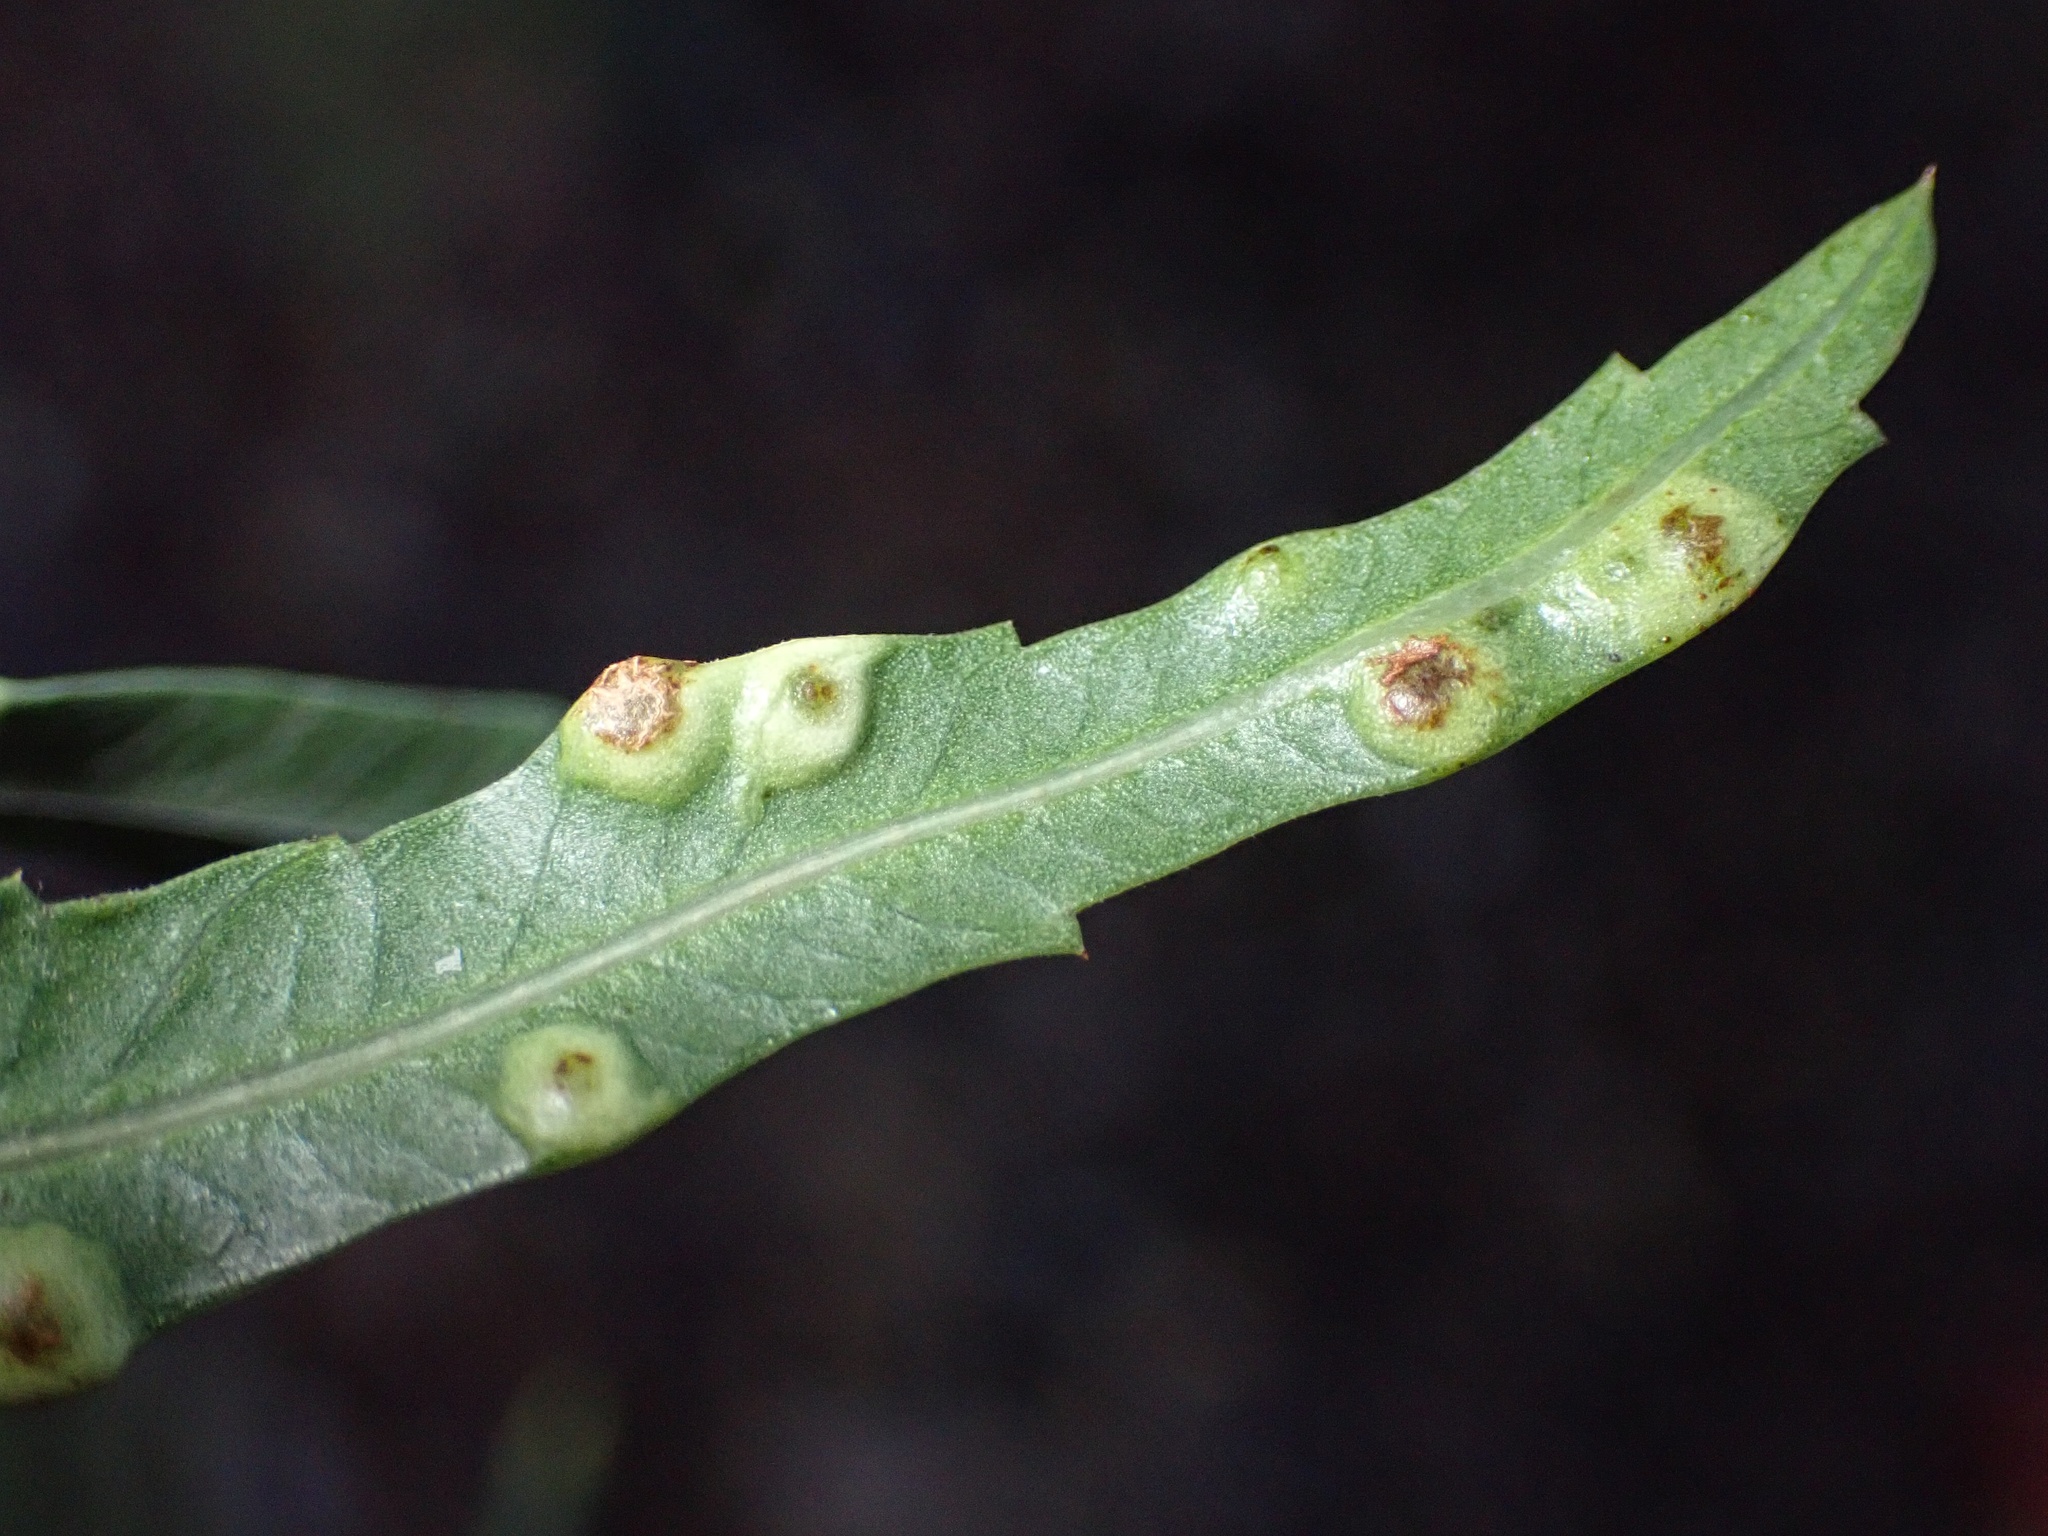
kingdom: Animalia
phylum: Arthropoda
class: Insecta
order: Hemiptera
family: Calophyidae
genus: Calophya
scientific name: Calophya schini
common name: Pepper tree psyllid
